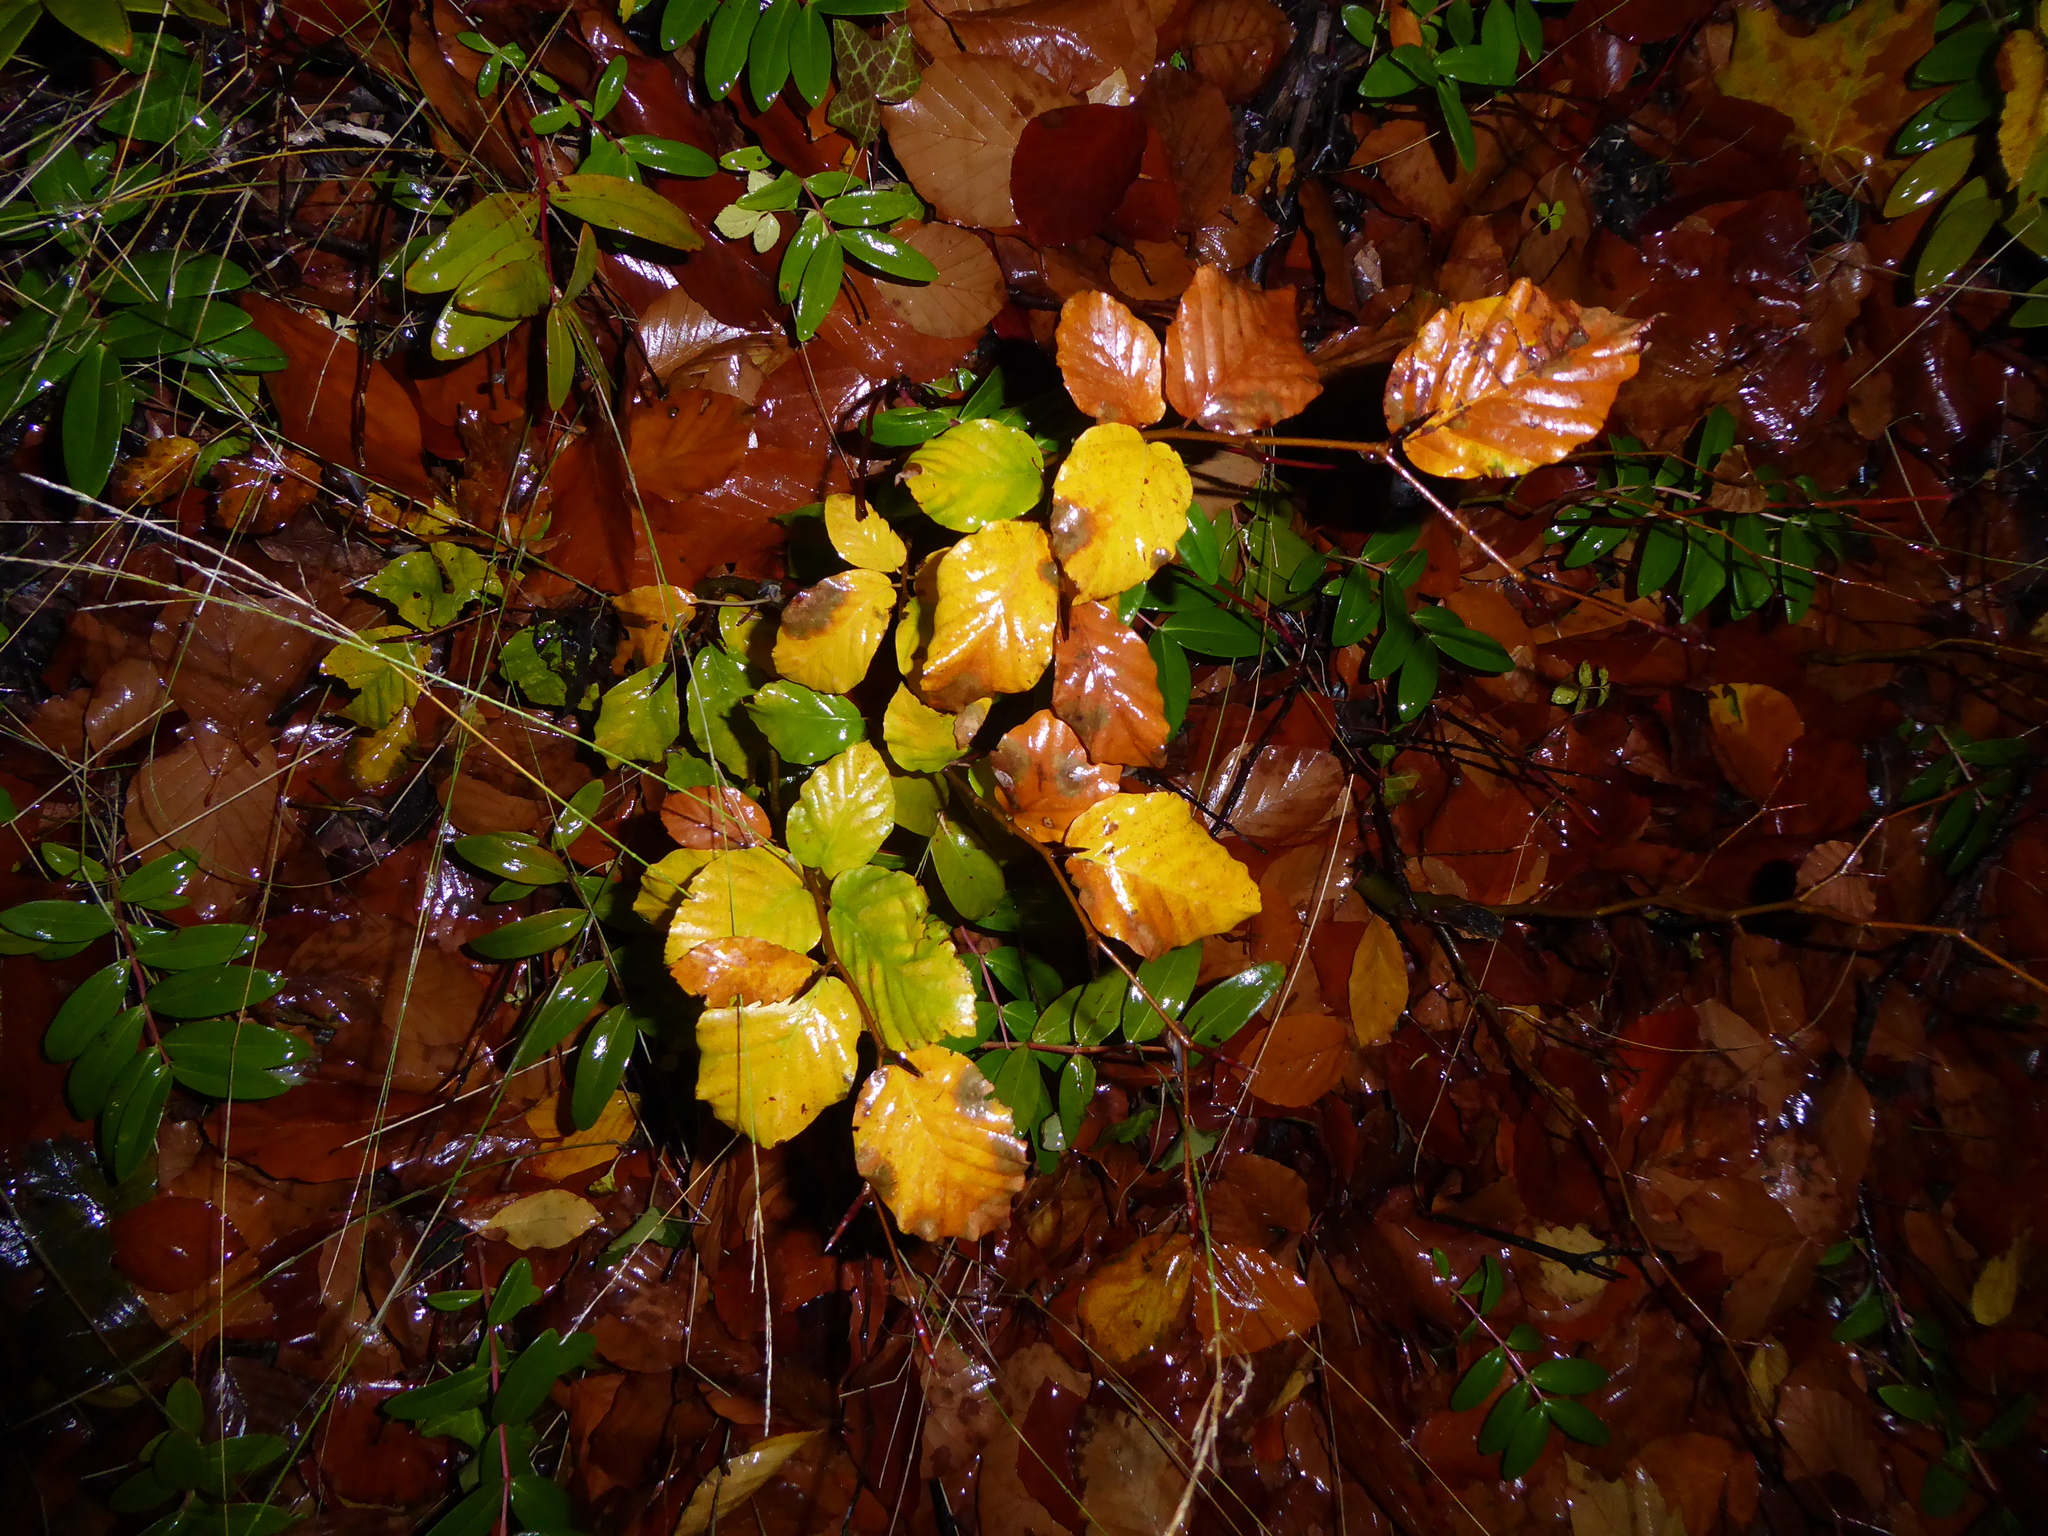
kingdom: Plantae
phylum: Tracheophyta
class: Magnoliopsida
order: Fagales
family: Fagaceae
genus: Fagus
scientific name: Fagus sylvatica
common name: Beech
